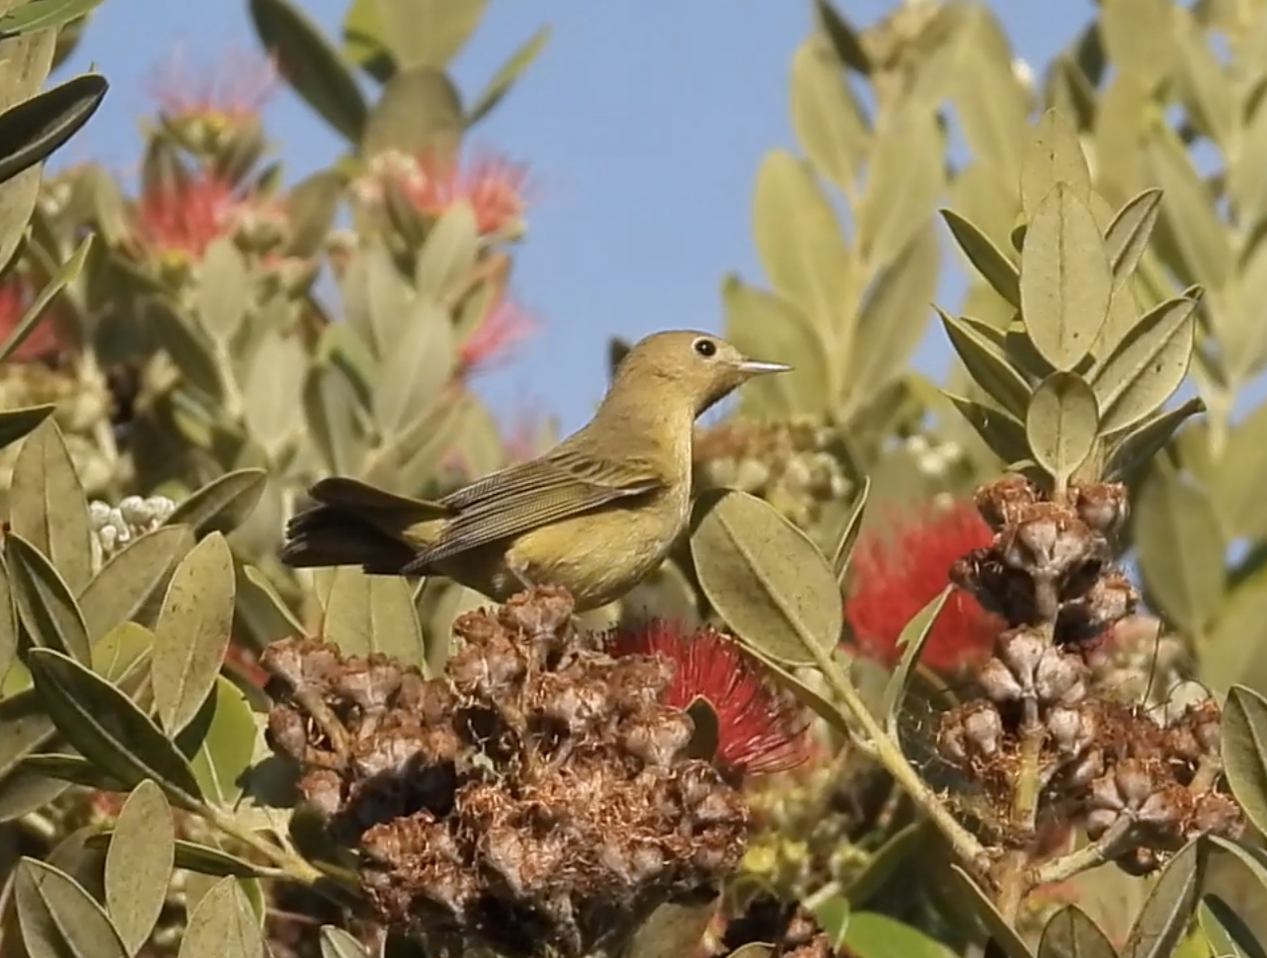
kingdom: Animalia
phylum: Chordata
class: Aves
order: Passeriformes
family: Parulidae
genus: Setophaga
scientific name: Setophaga petechia
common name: Yellow warbler
